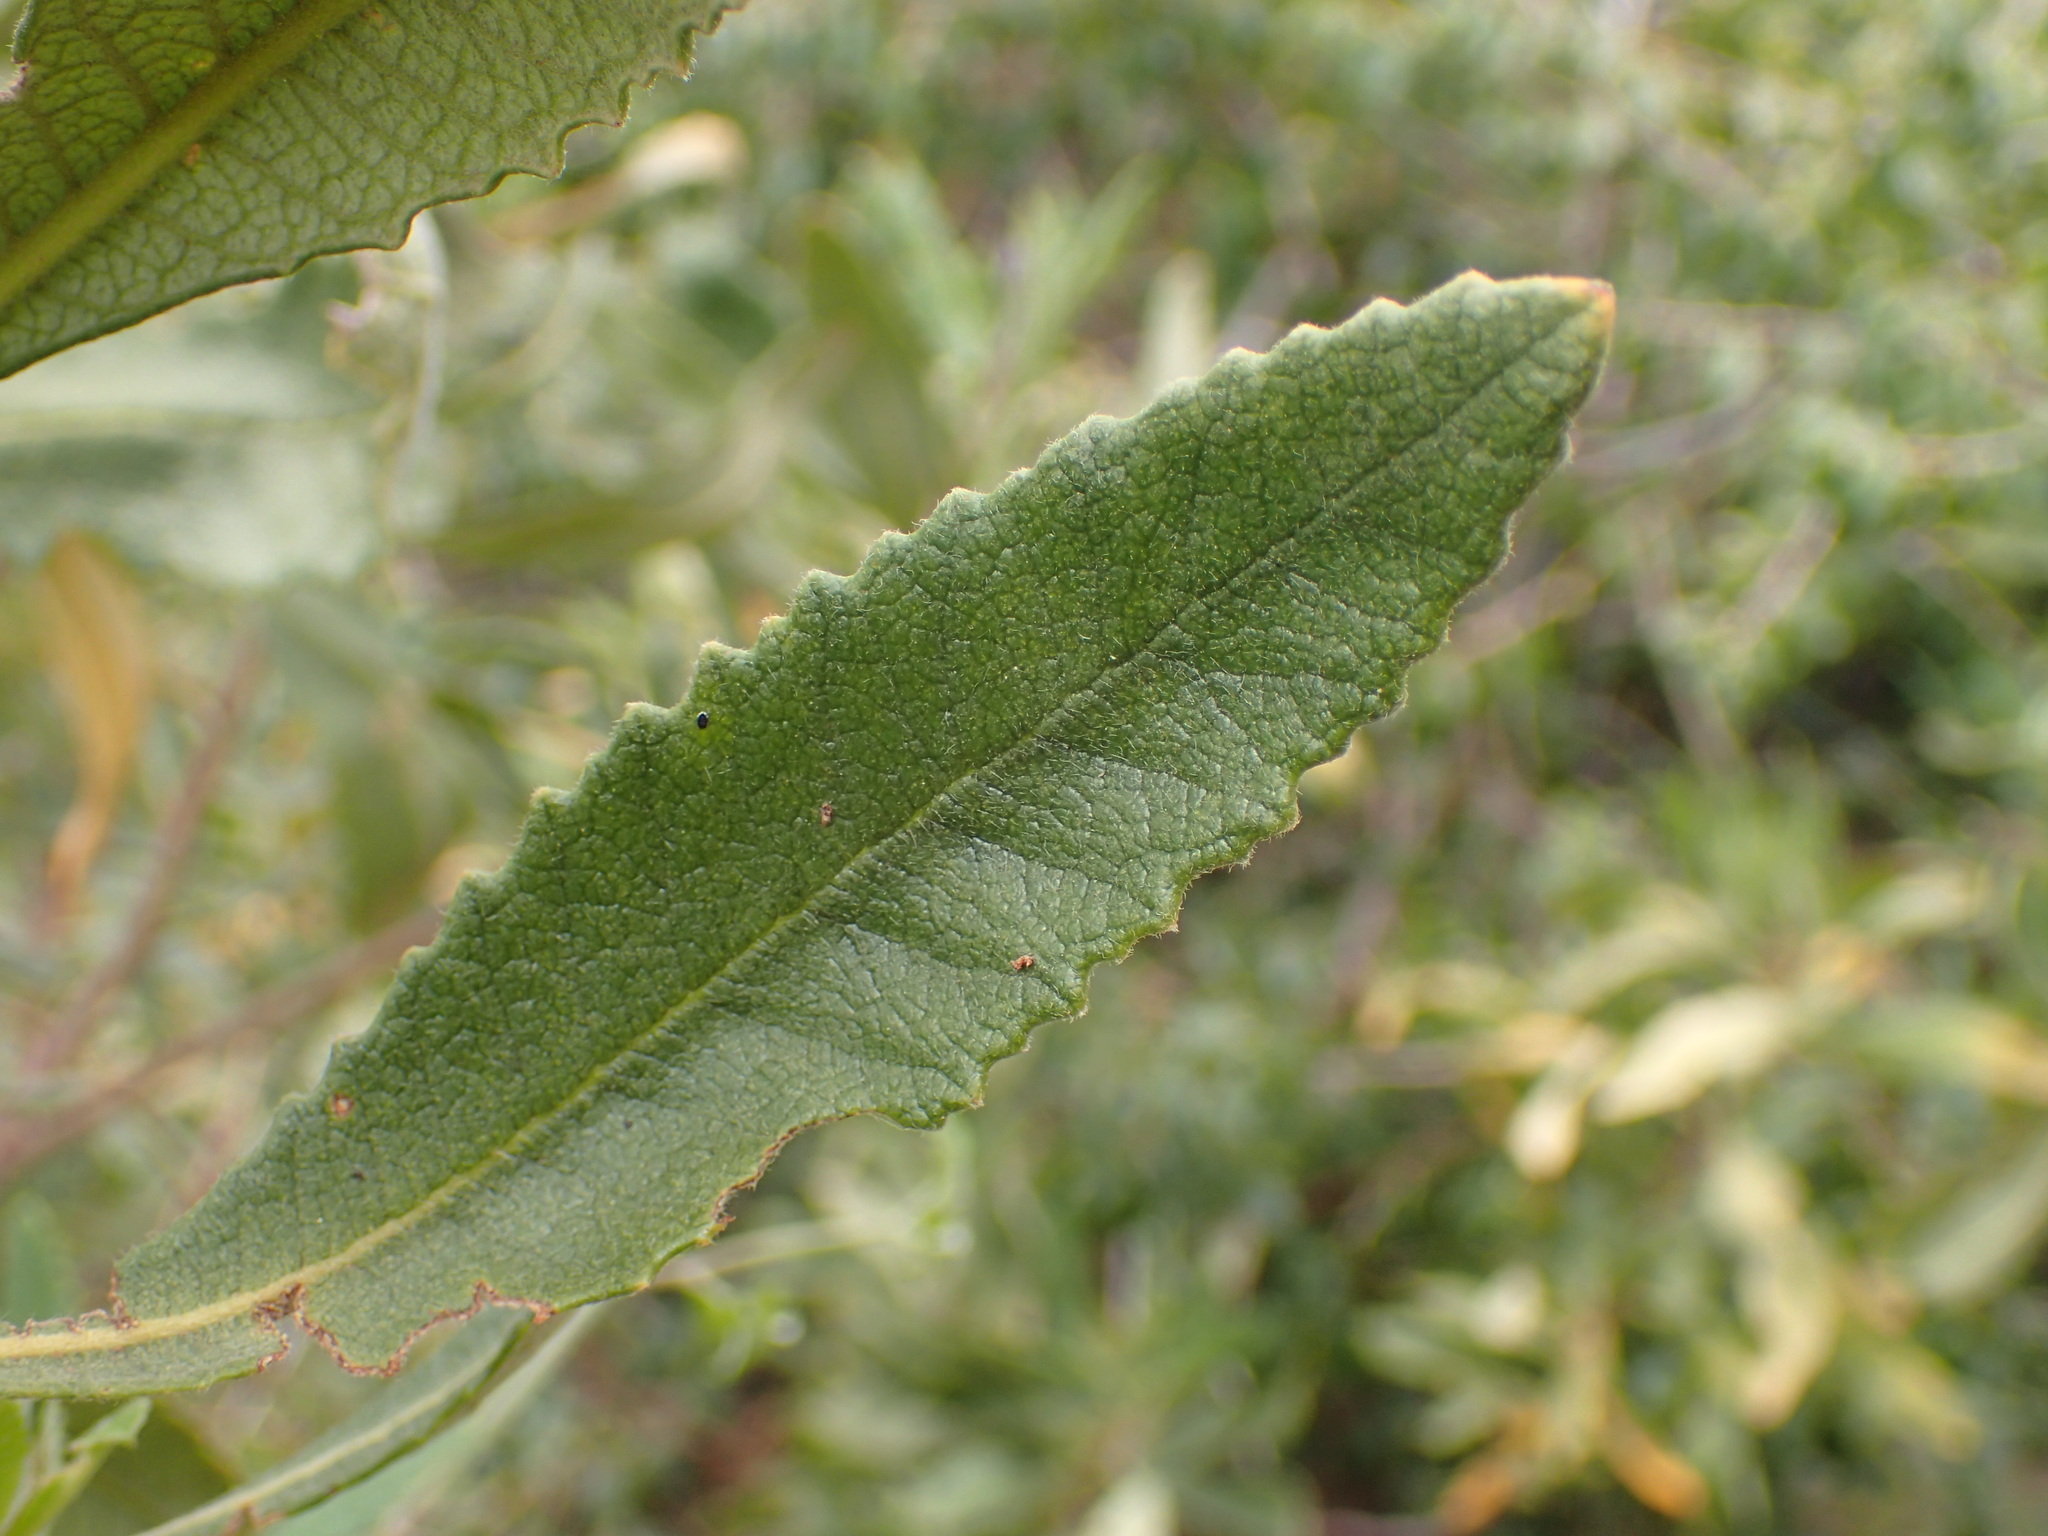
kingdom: Plantae
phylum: Tracheophyta
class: Magnoliopsida
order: Boraginales
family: Namaceae
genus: Eriodictyon
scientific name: Eriodictyon crassifolium
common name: Thick-leaf yerba-santa
